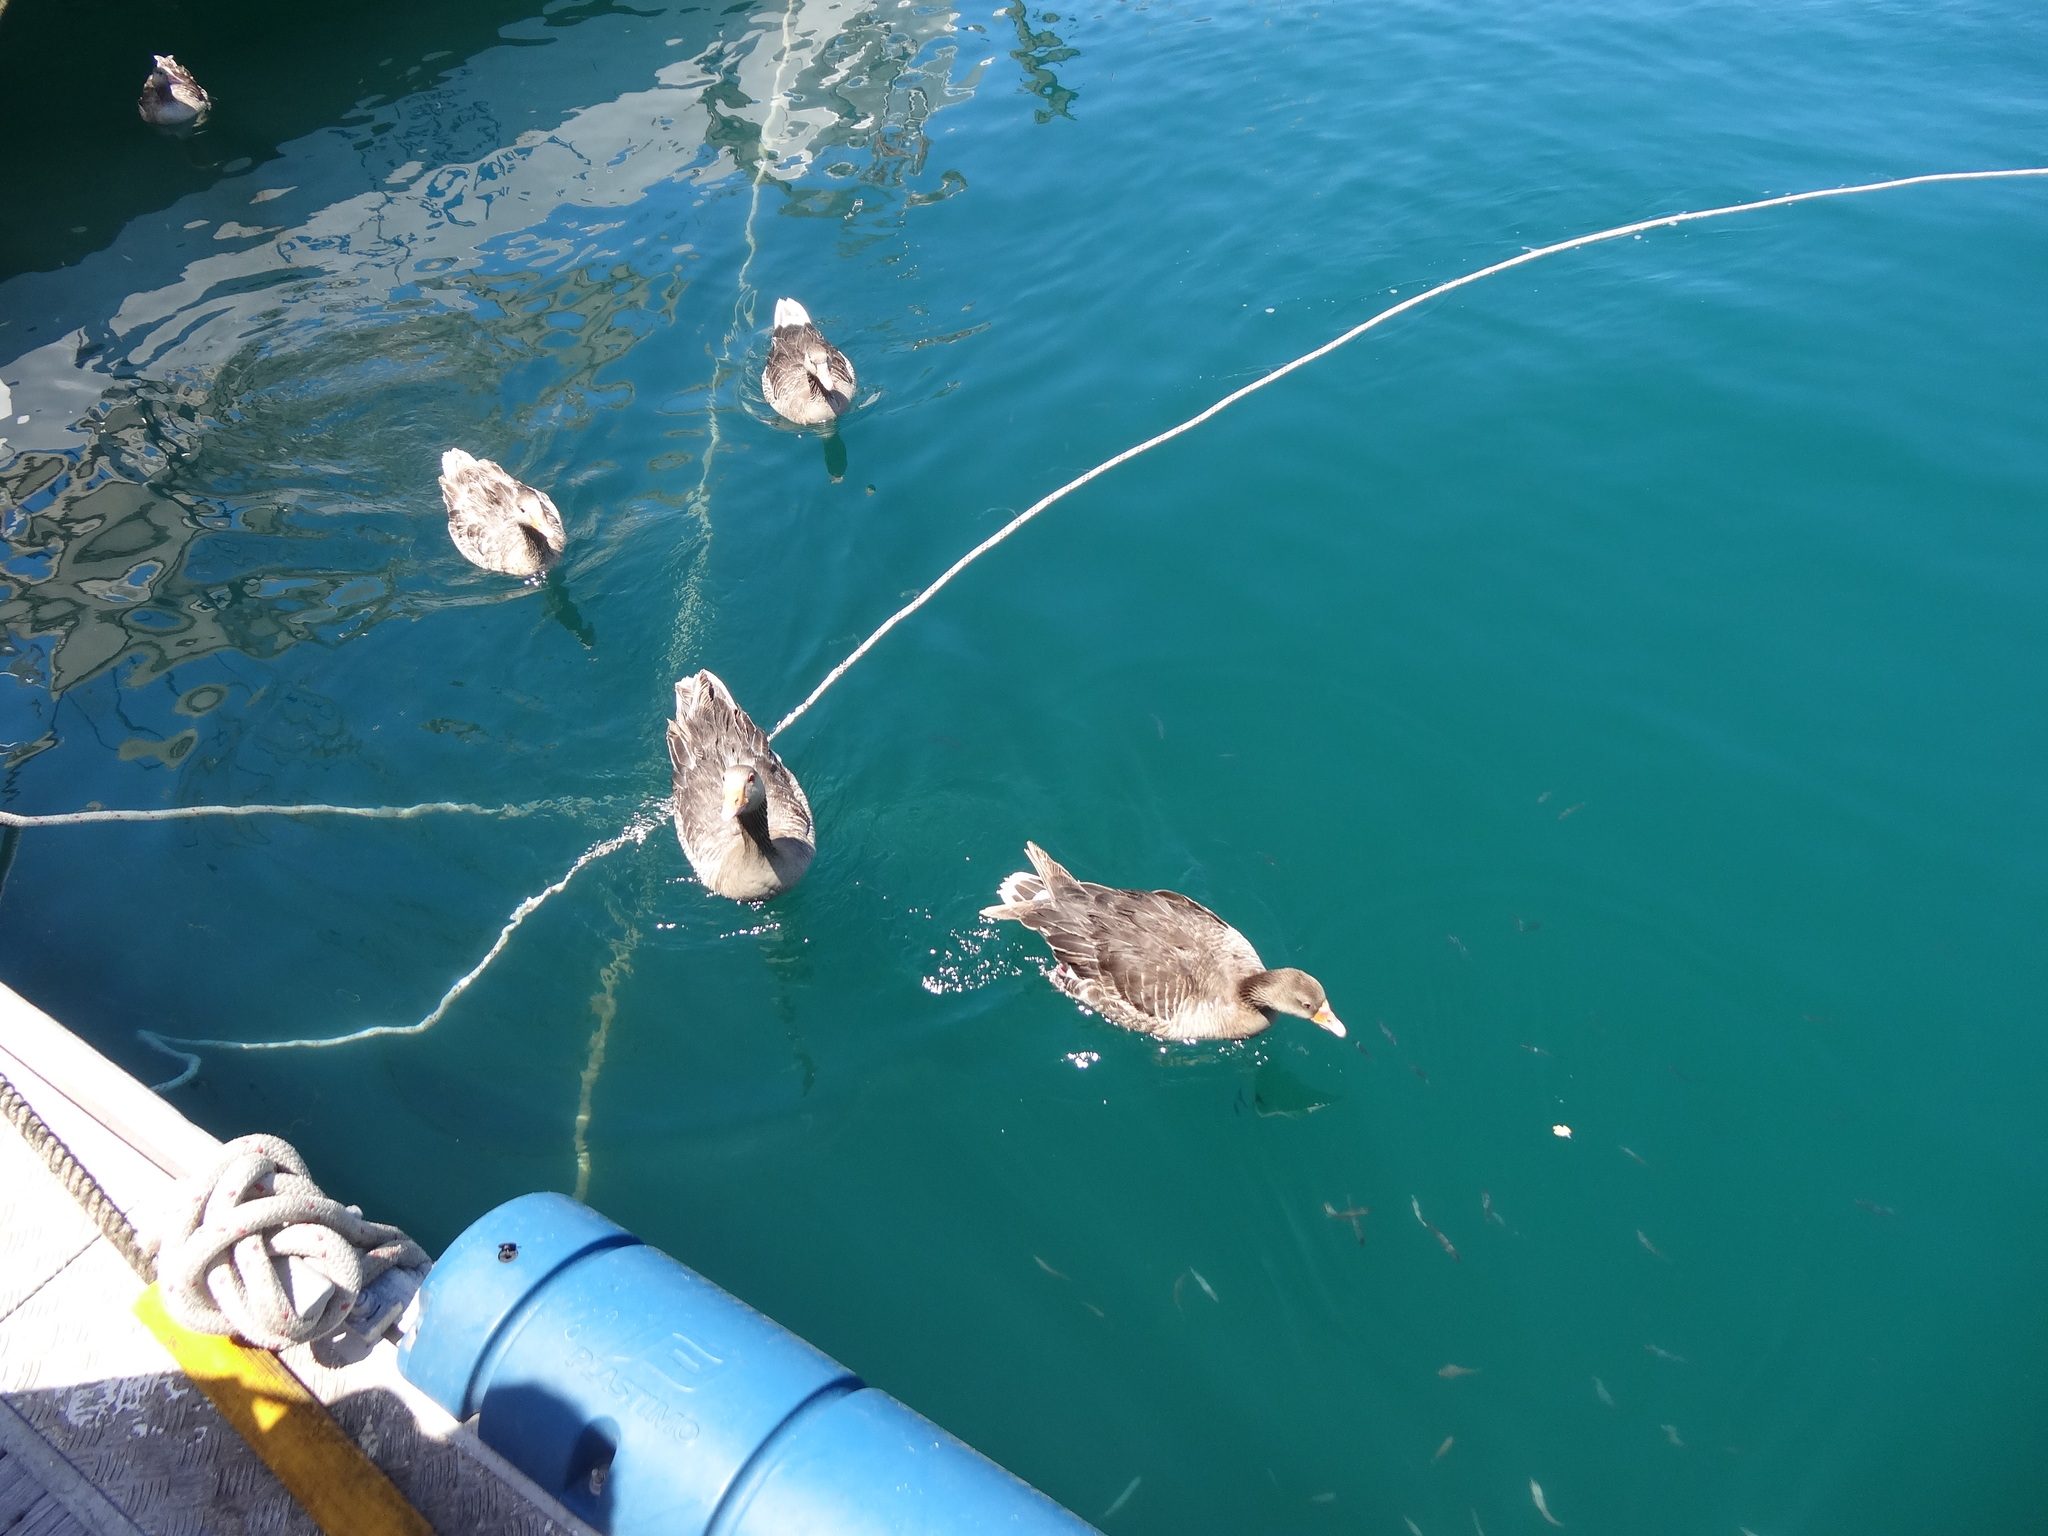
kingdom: Animalia
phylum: Chordata
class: Aves
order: Anseriformes
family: Anatidae
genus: Anser
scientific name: Anser anser
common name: Greylag goose
